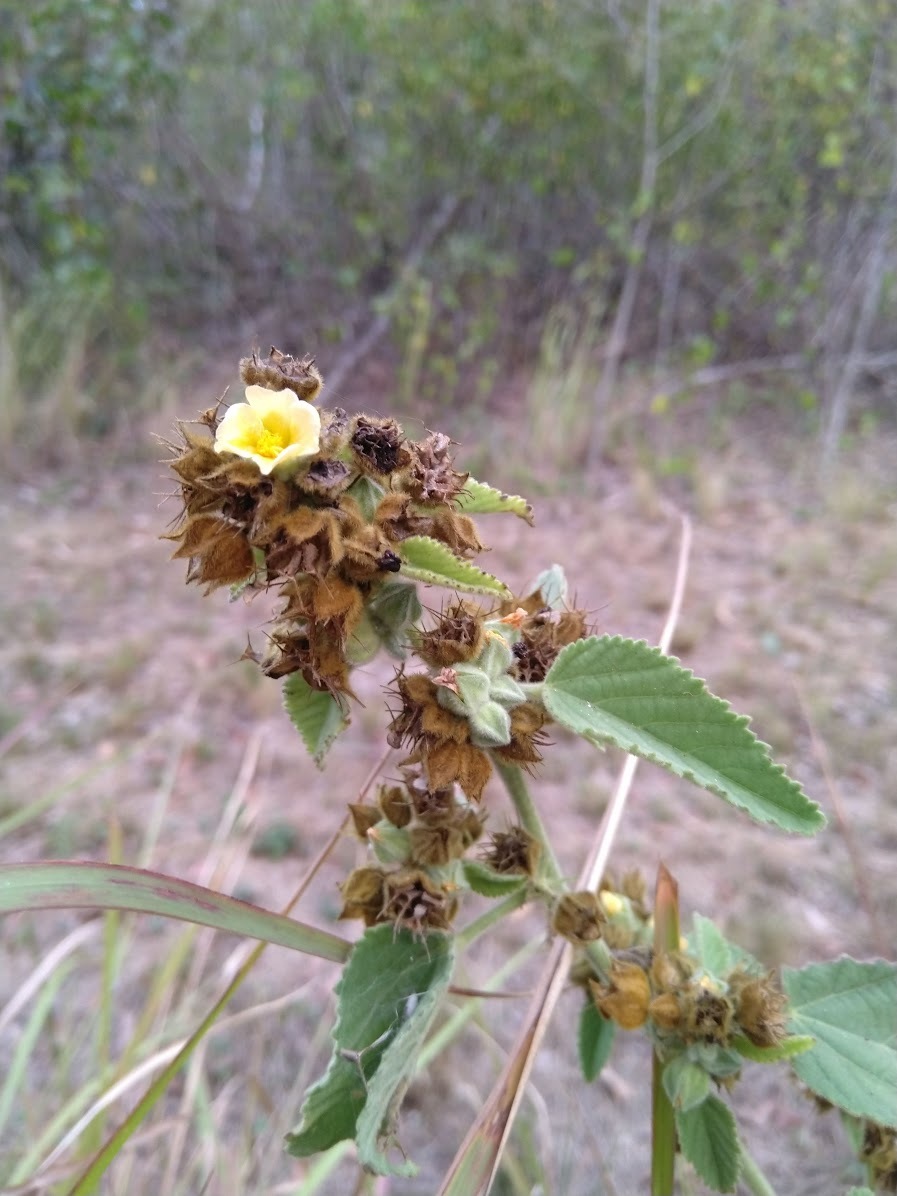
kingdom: Plantae
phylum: Tracheophyta
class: Magnoliopsida
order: Malvales
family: Malvaceae
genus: Sida
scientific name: Sida cordifolia
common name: Ilima
